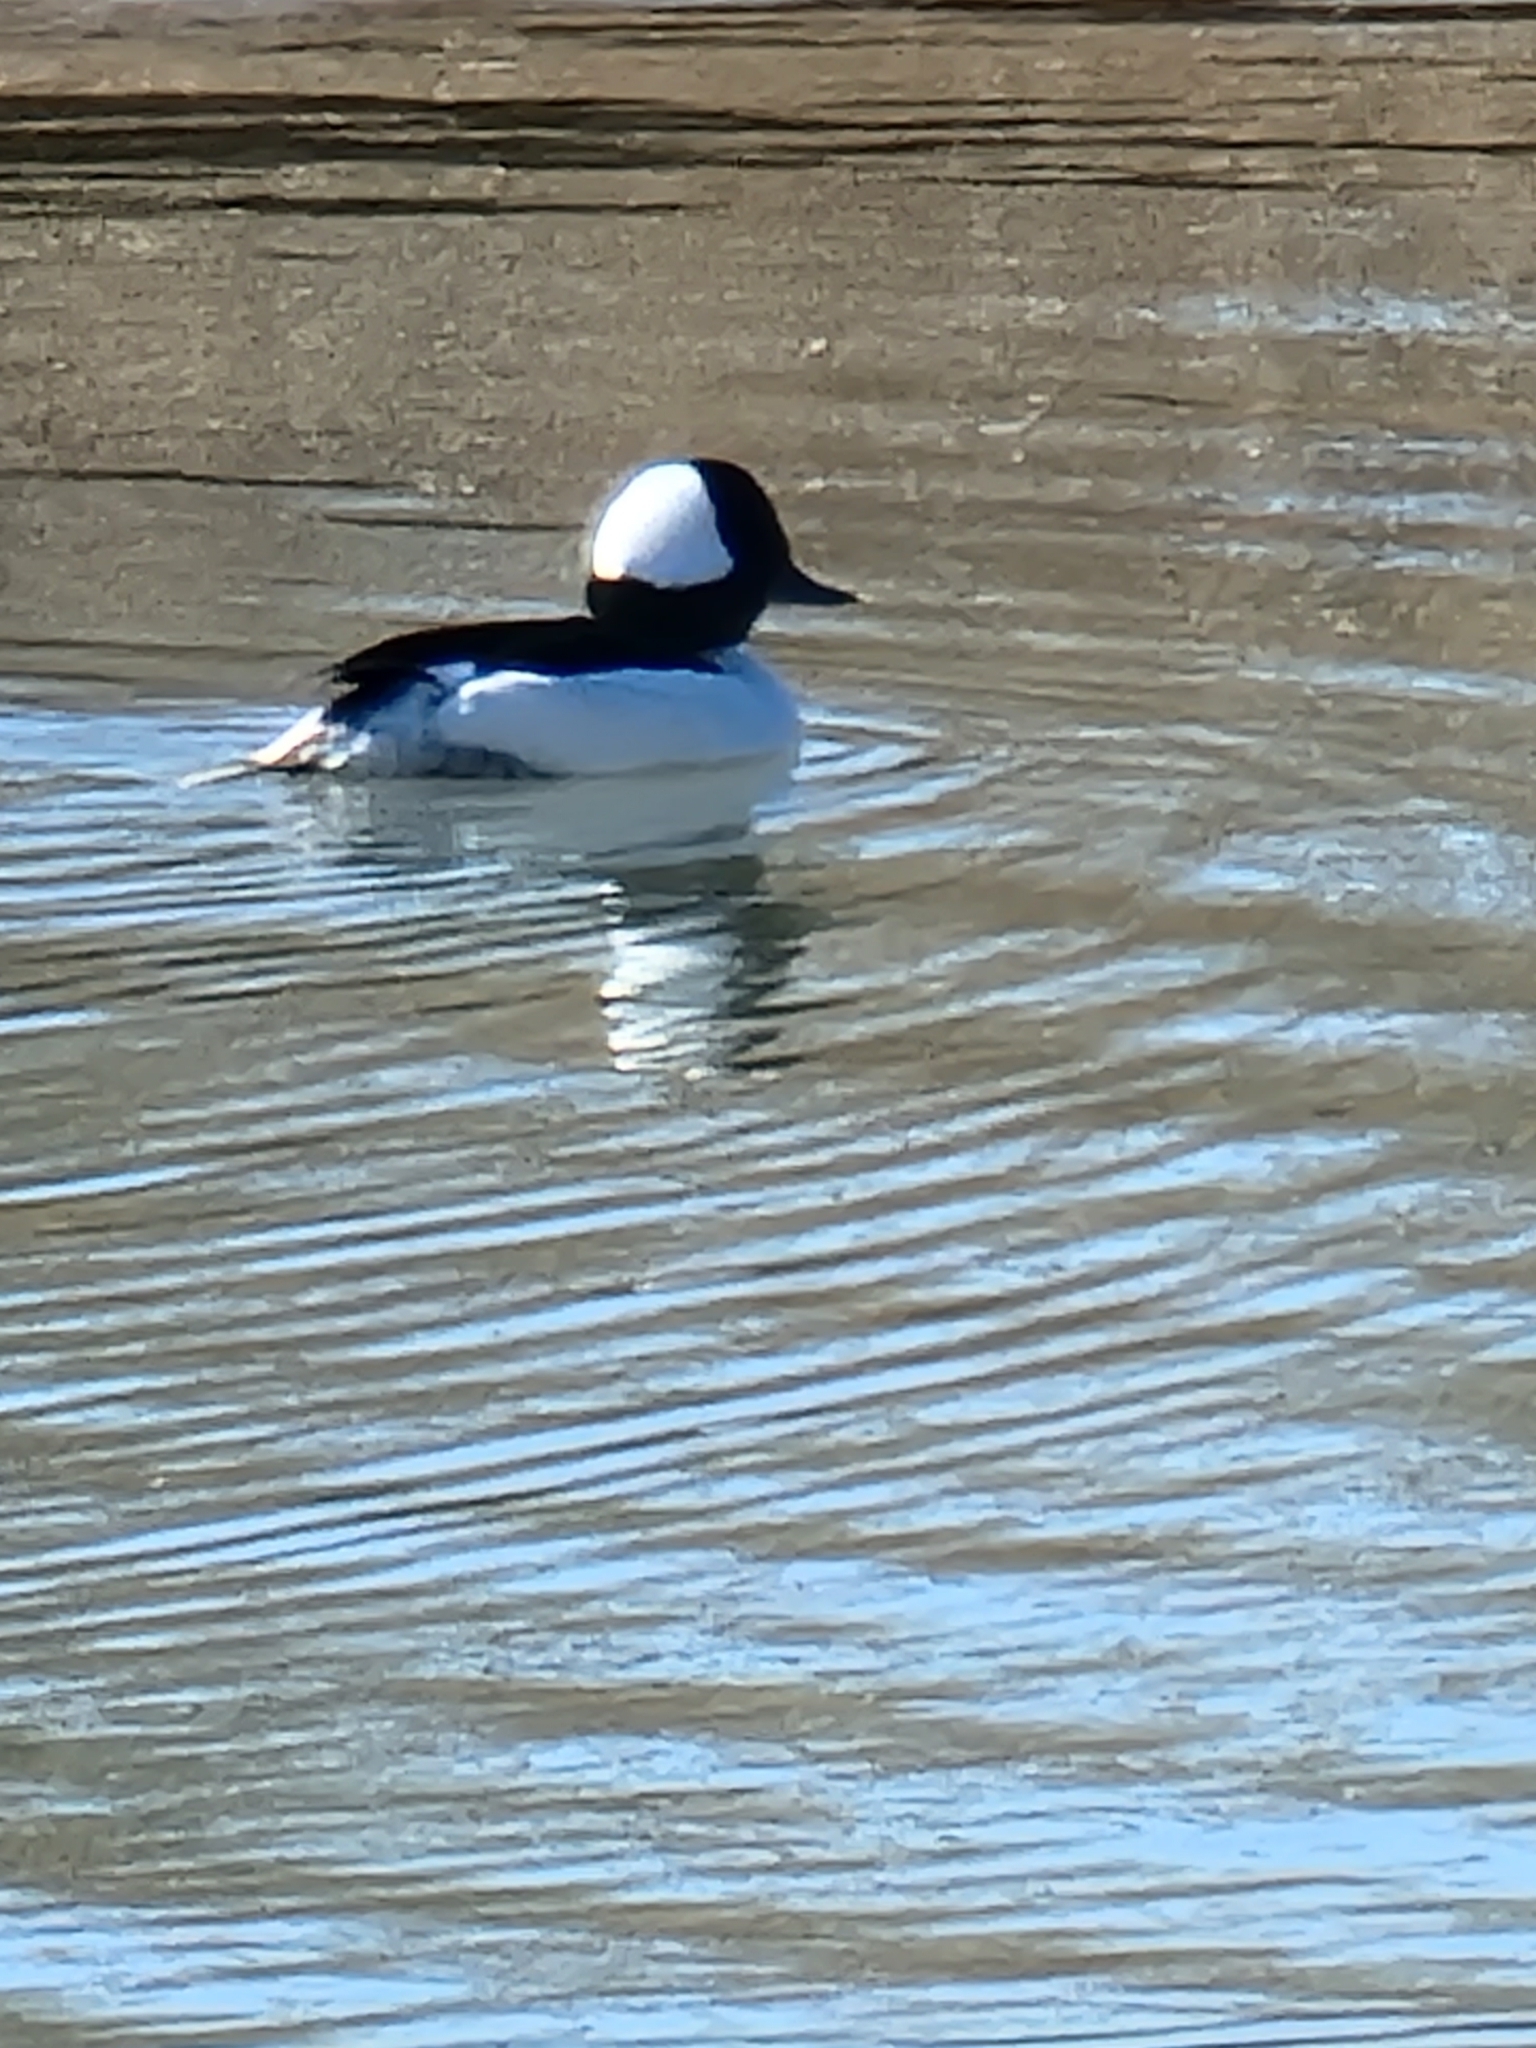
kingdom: Animalia
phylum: Chordata
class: Aves
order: Anseriformes
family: Anatidae
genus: Bucephala
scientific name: Bucephala albeola
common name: Bufflehead
